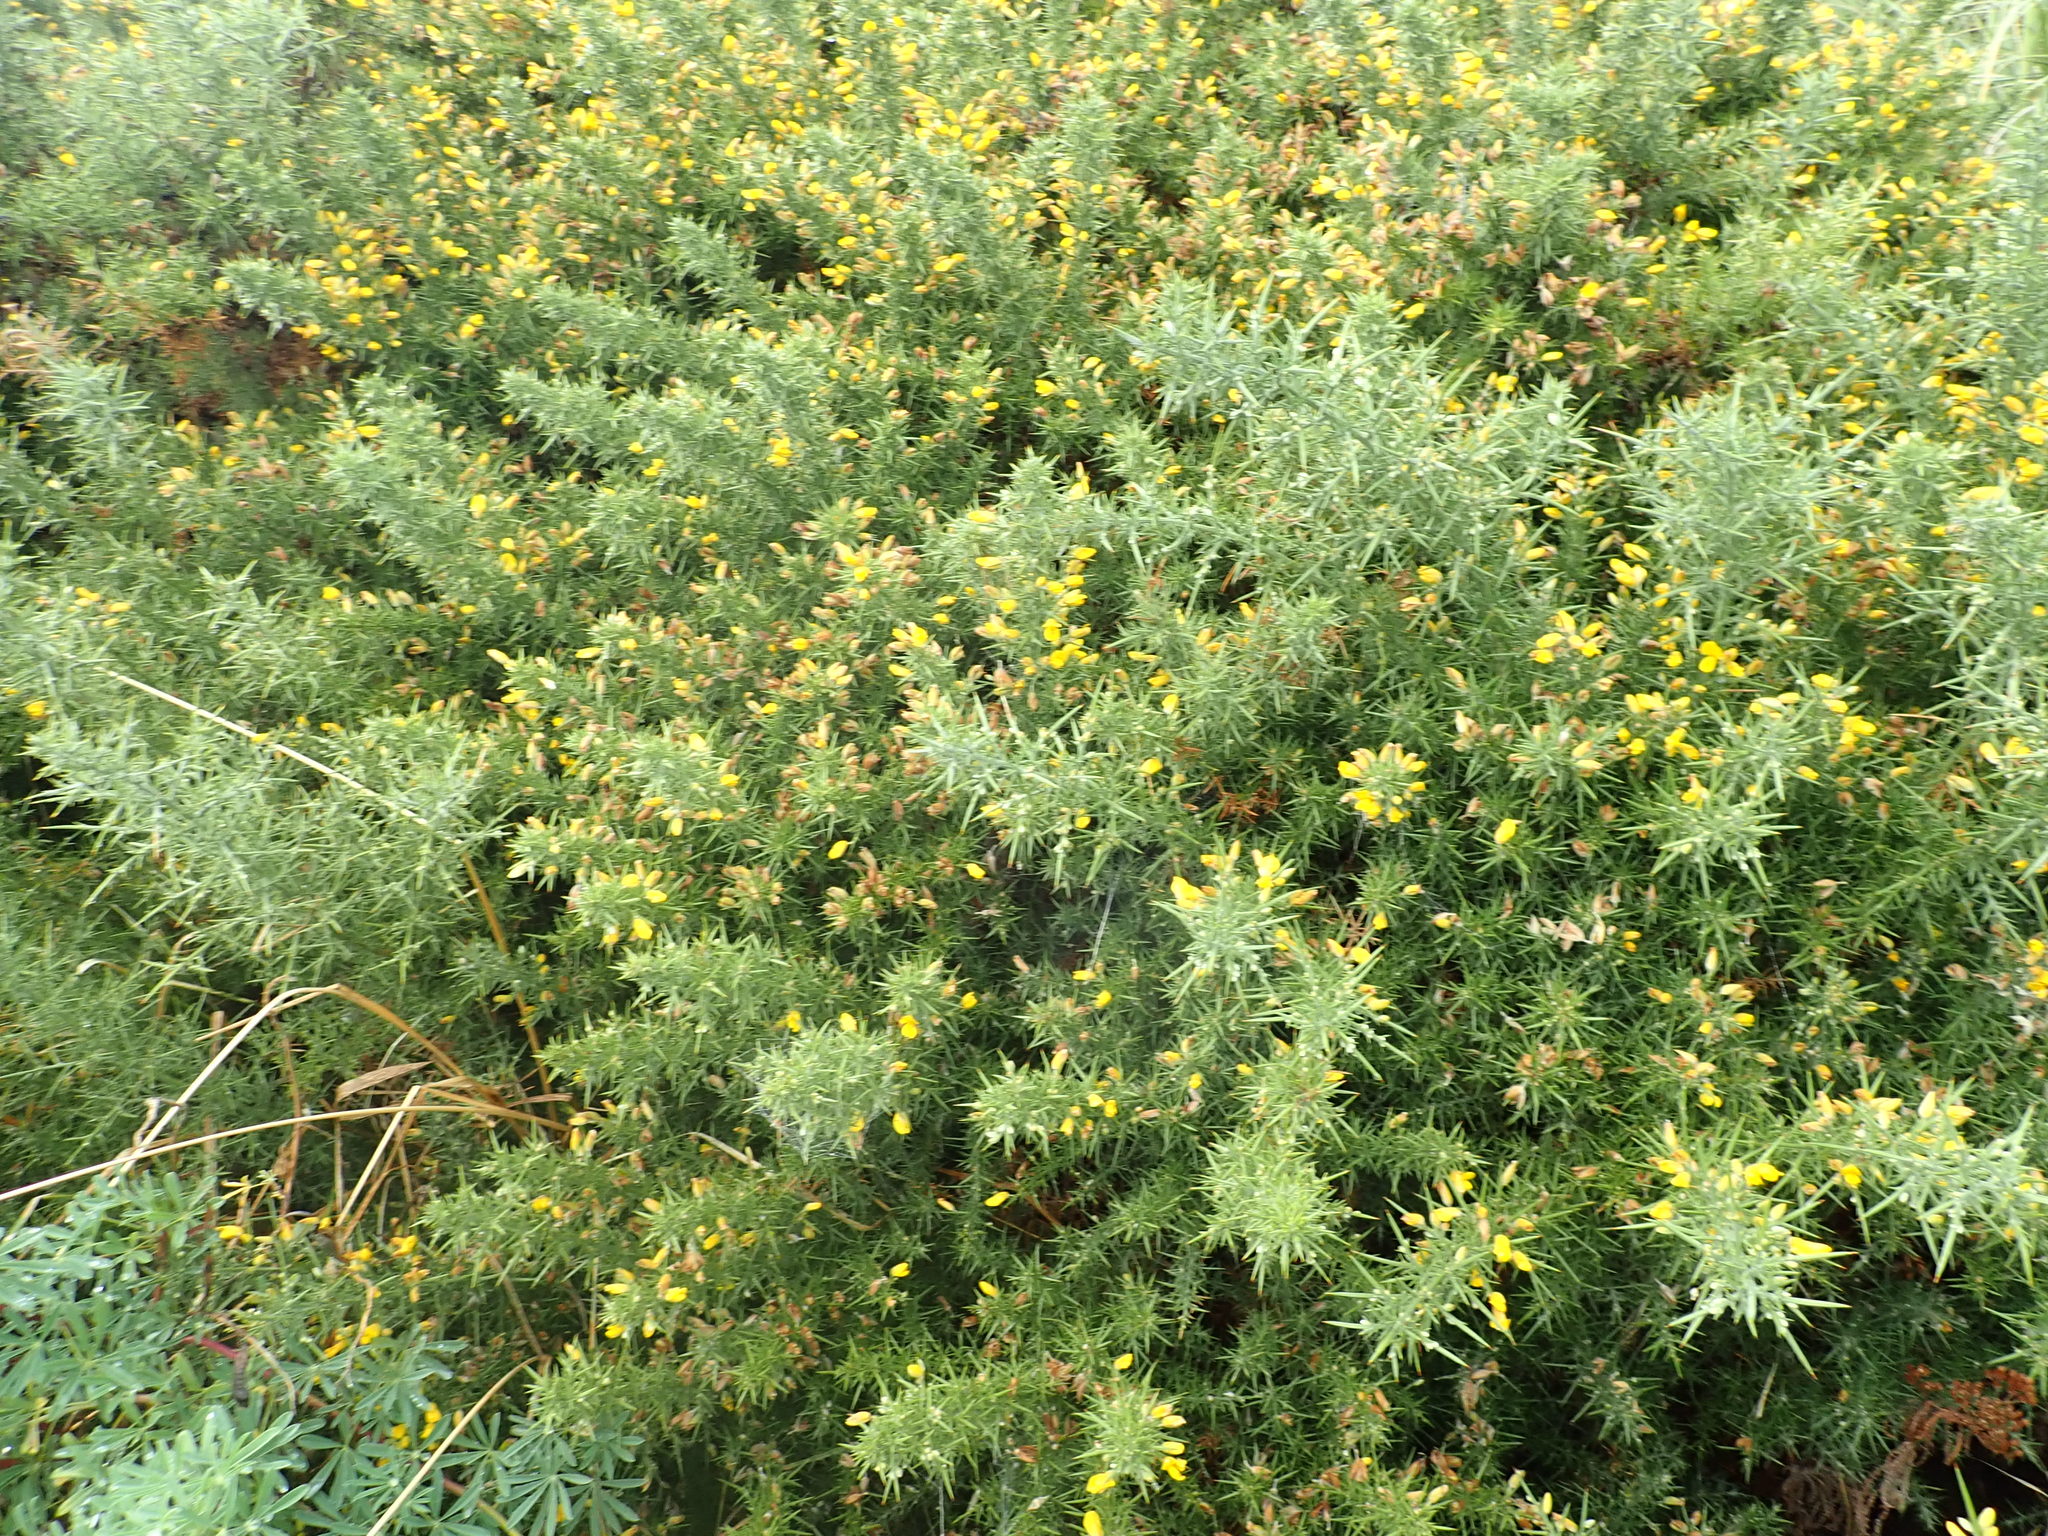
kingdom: Plantae
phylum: Tracheophyta
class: Magnoliopsida
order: Fabales
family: Fabaceae
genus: Ulex
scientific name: Ulex europaeus
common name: Common gorse
